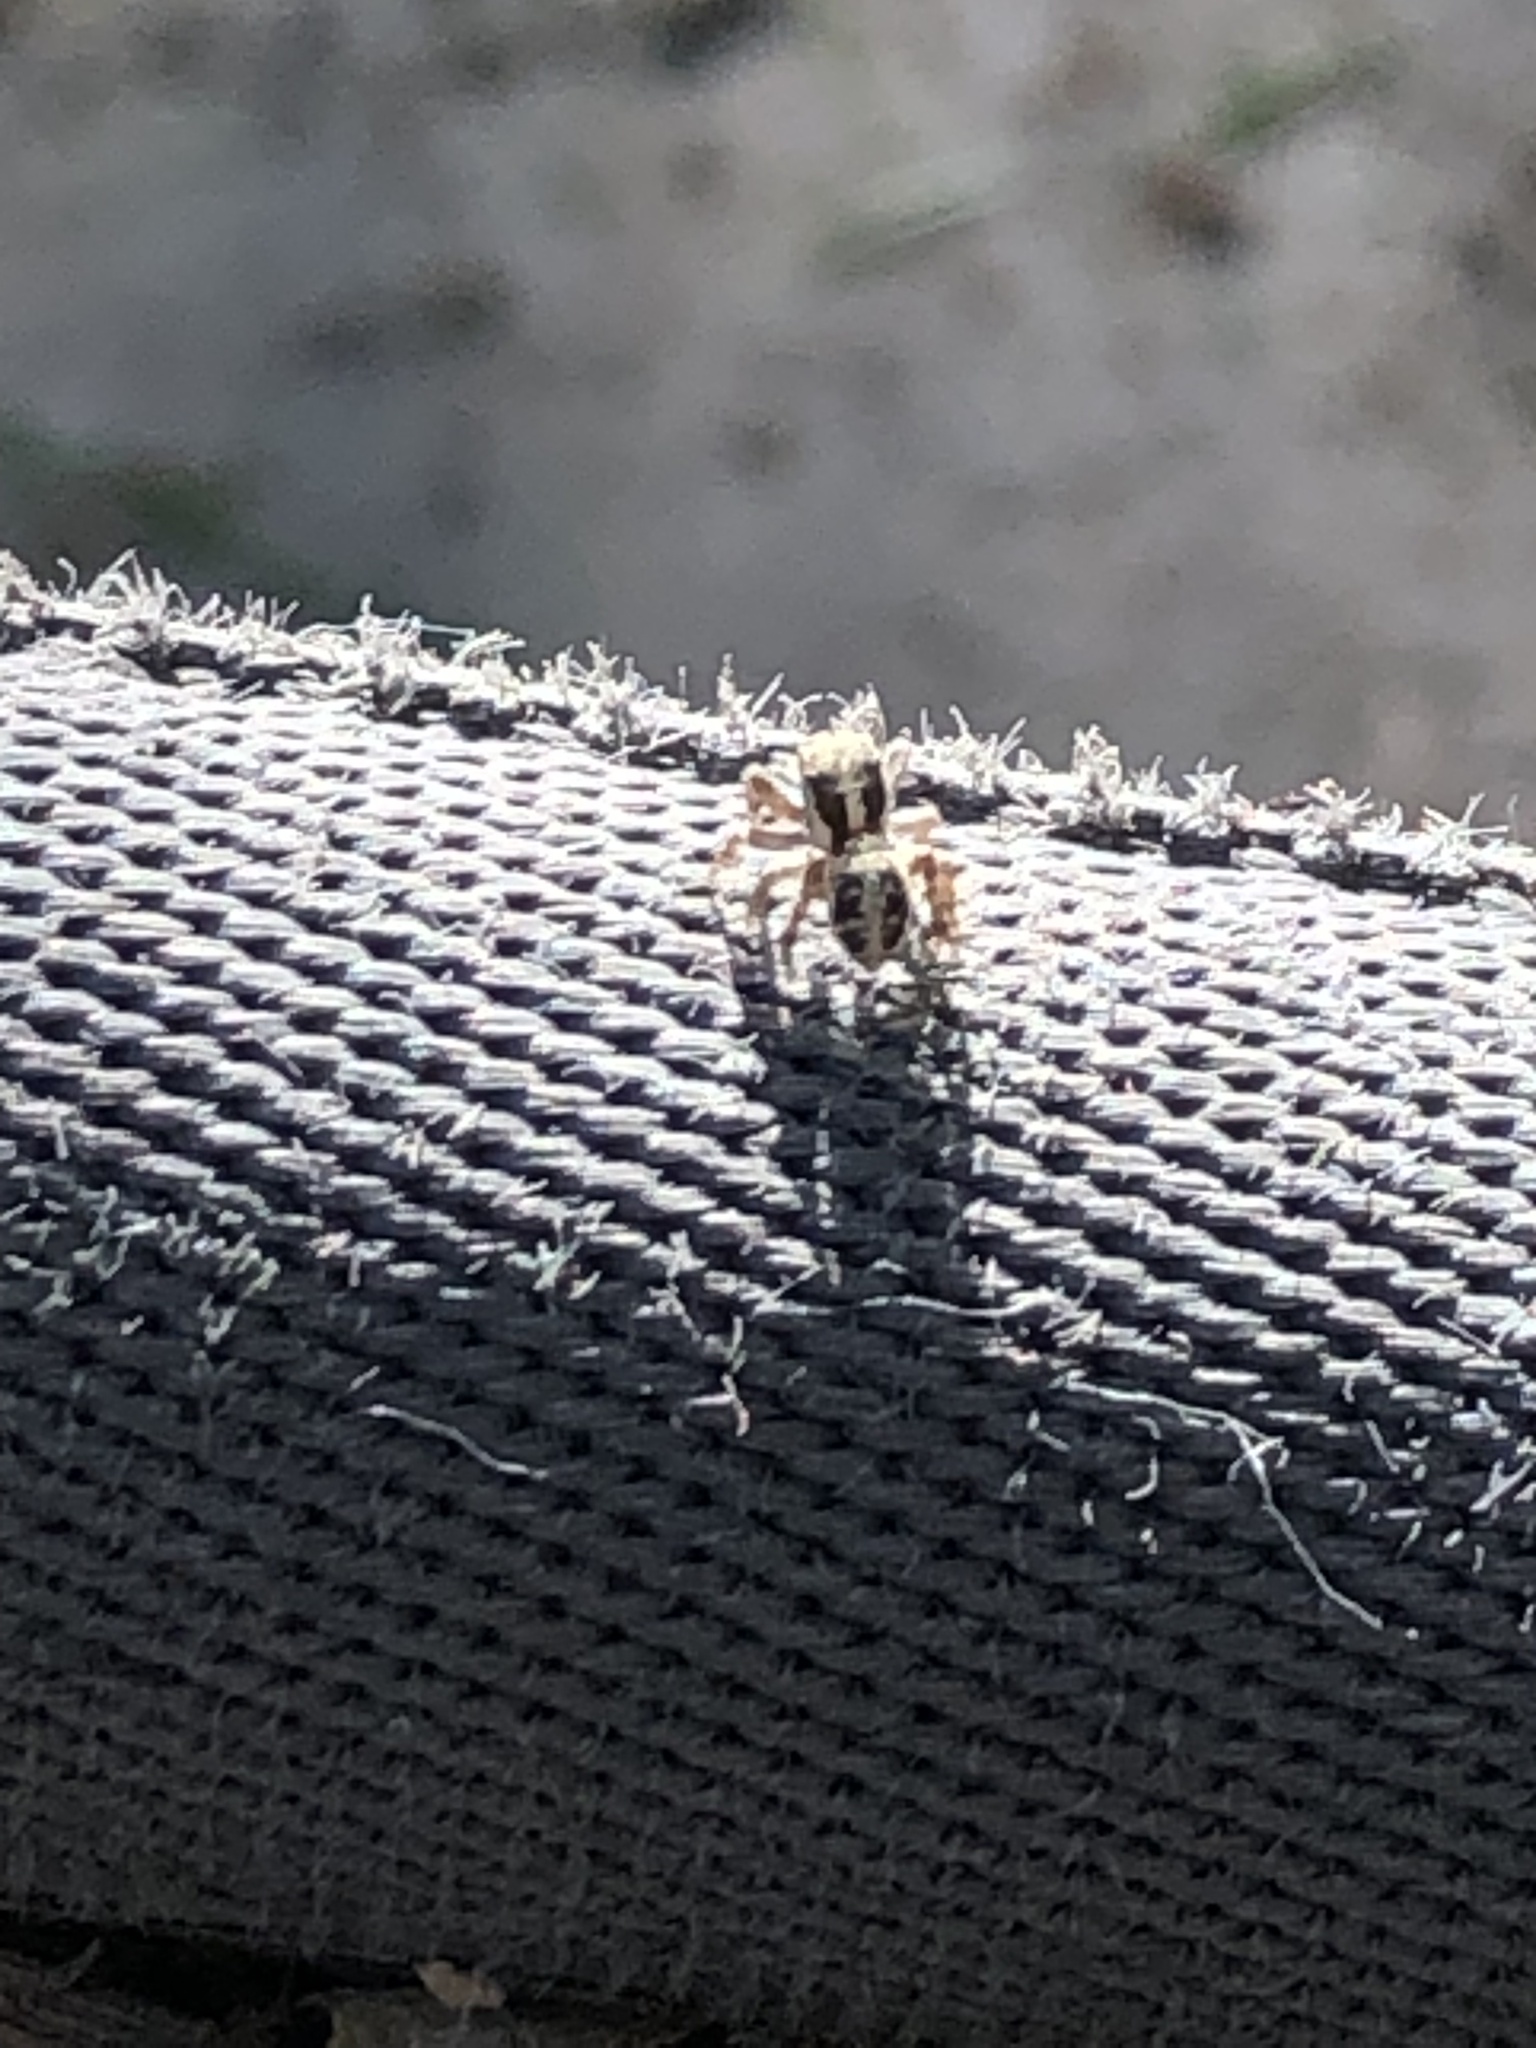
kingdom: Animalia
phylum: Arthropoda
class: Arachnida
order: Araneae
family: Salticidae
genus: Attulus
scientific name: Attulus ammophilus
